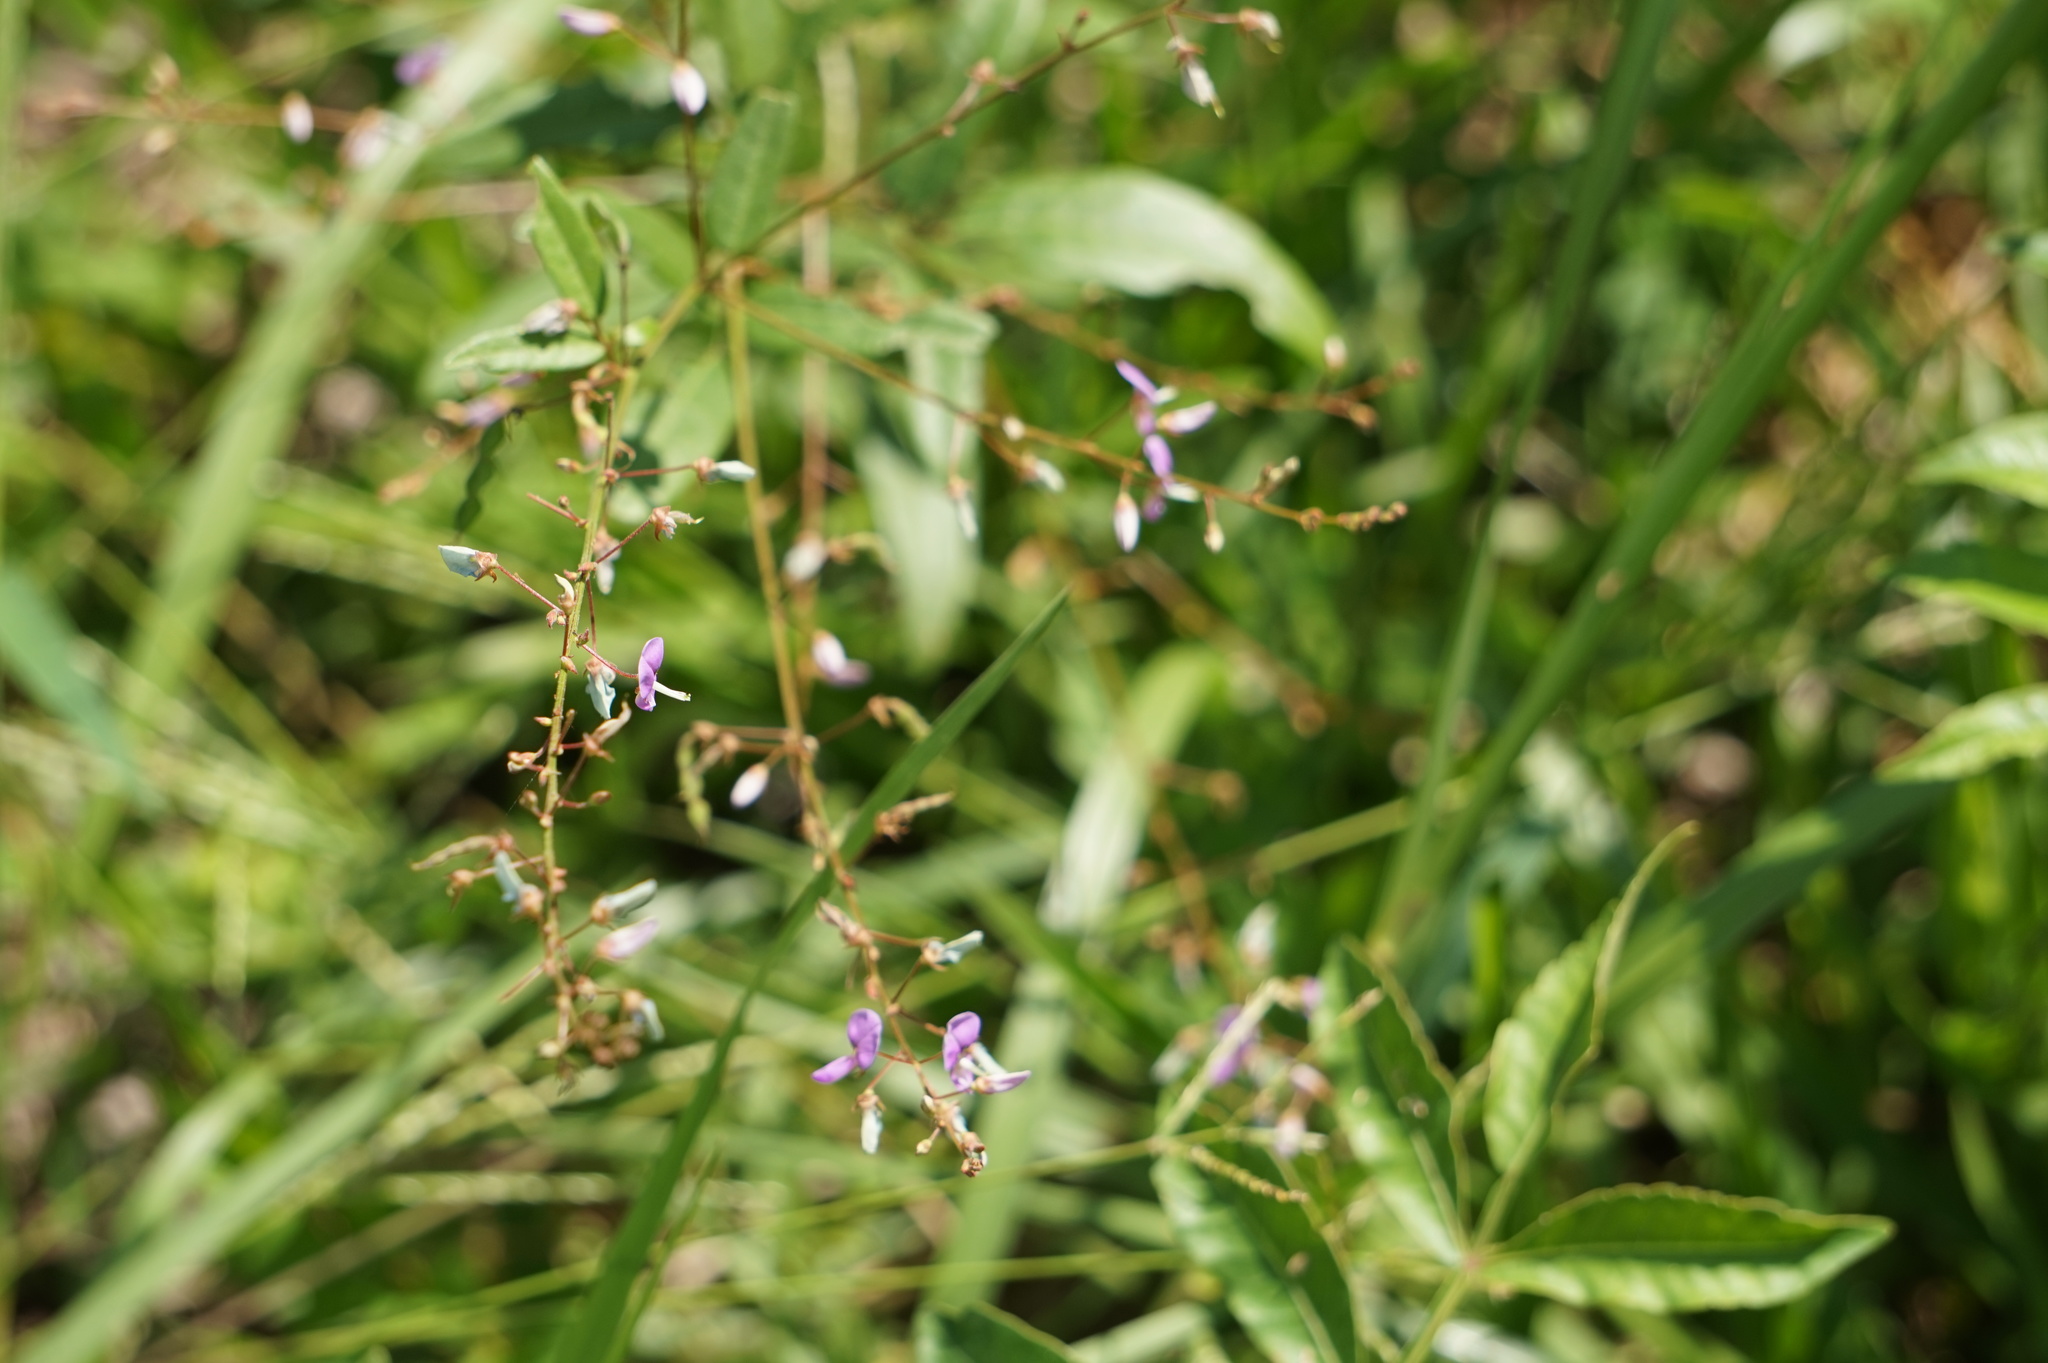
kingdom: Plantae
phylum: Tracheophyta
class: Magnoliopsida
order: Fabales
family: Fabaceae
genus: Desmodium
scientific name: Desmodium paniculatum
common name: Panicled tick-clover
